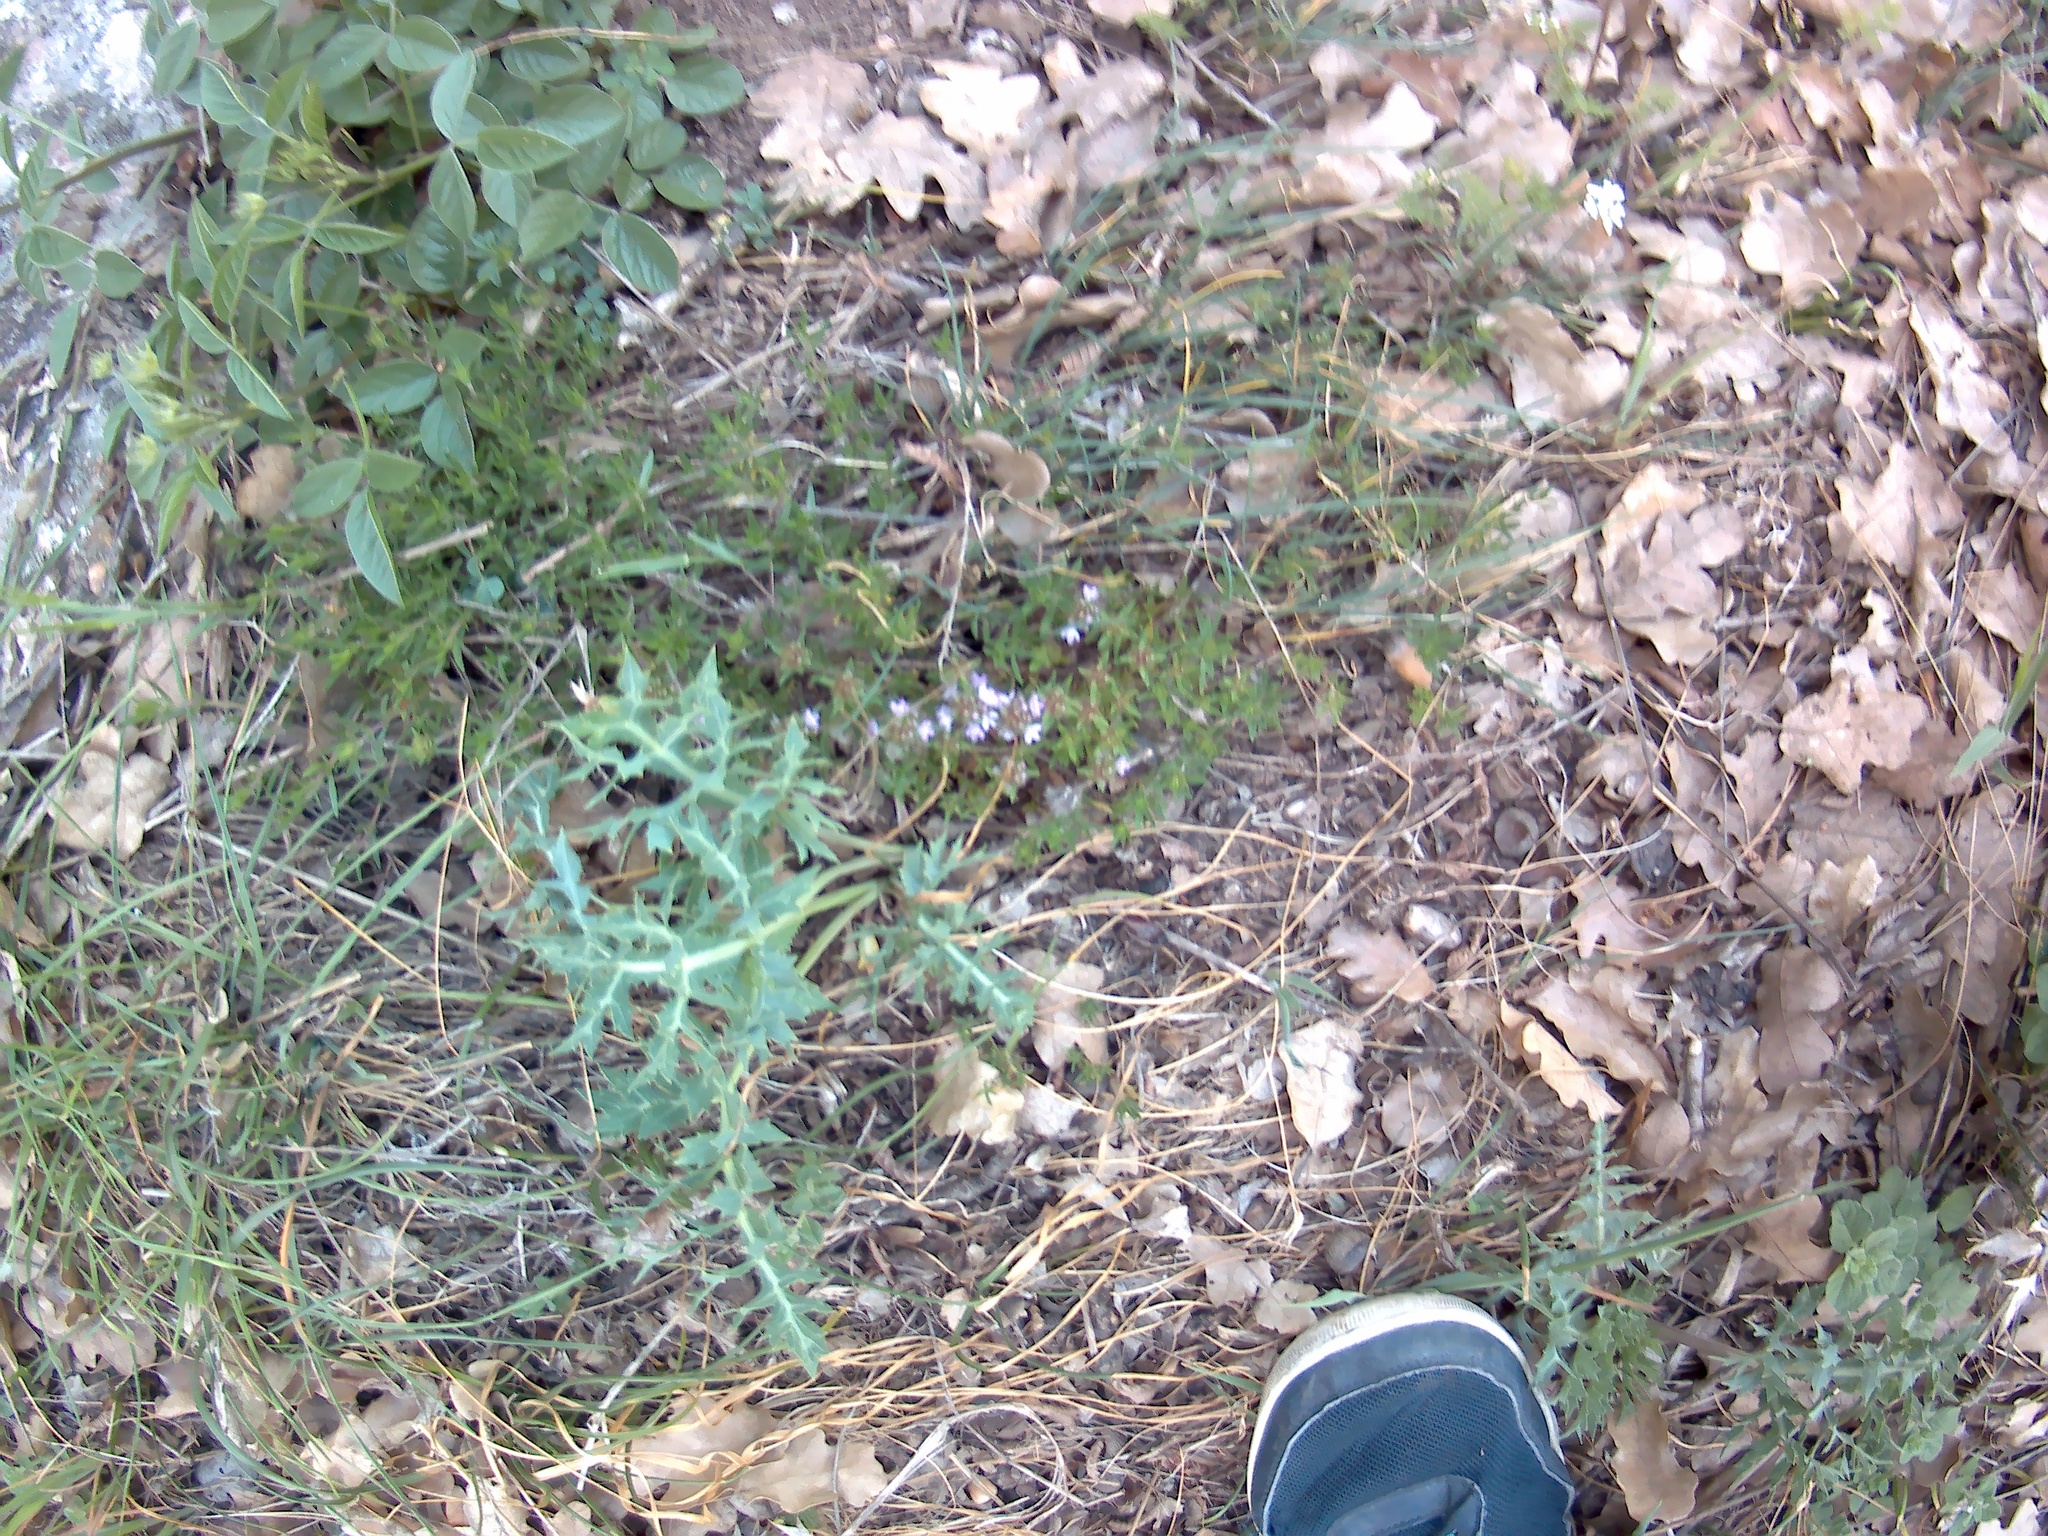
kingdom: Plantae
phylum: Tracheophyta
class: Magnoliopsida
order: Apiales
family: Apiaceae
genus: Eryngium
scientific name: Eryngium campestre
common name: Field eryngo
